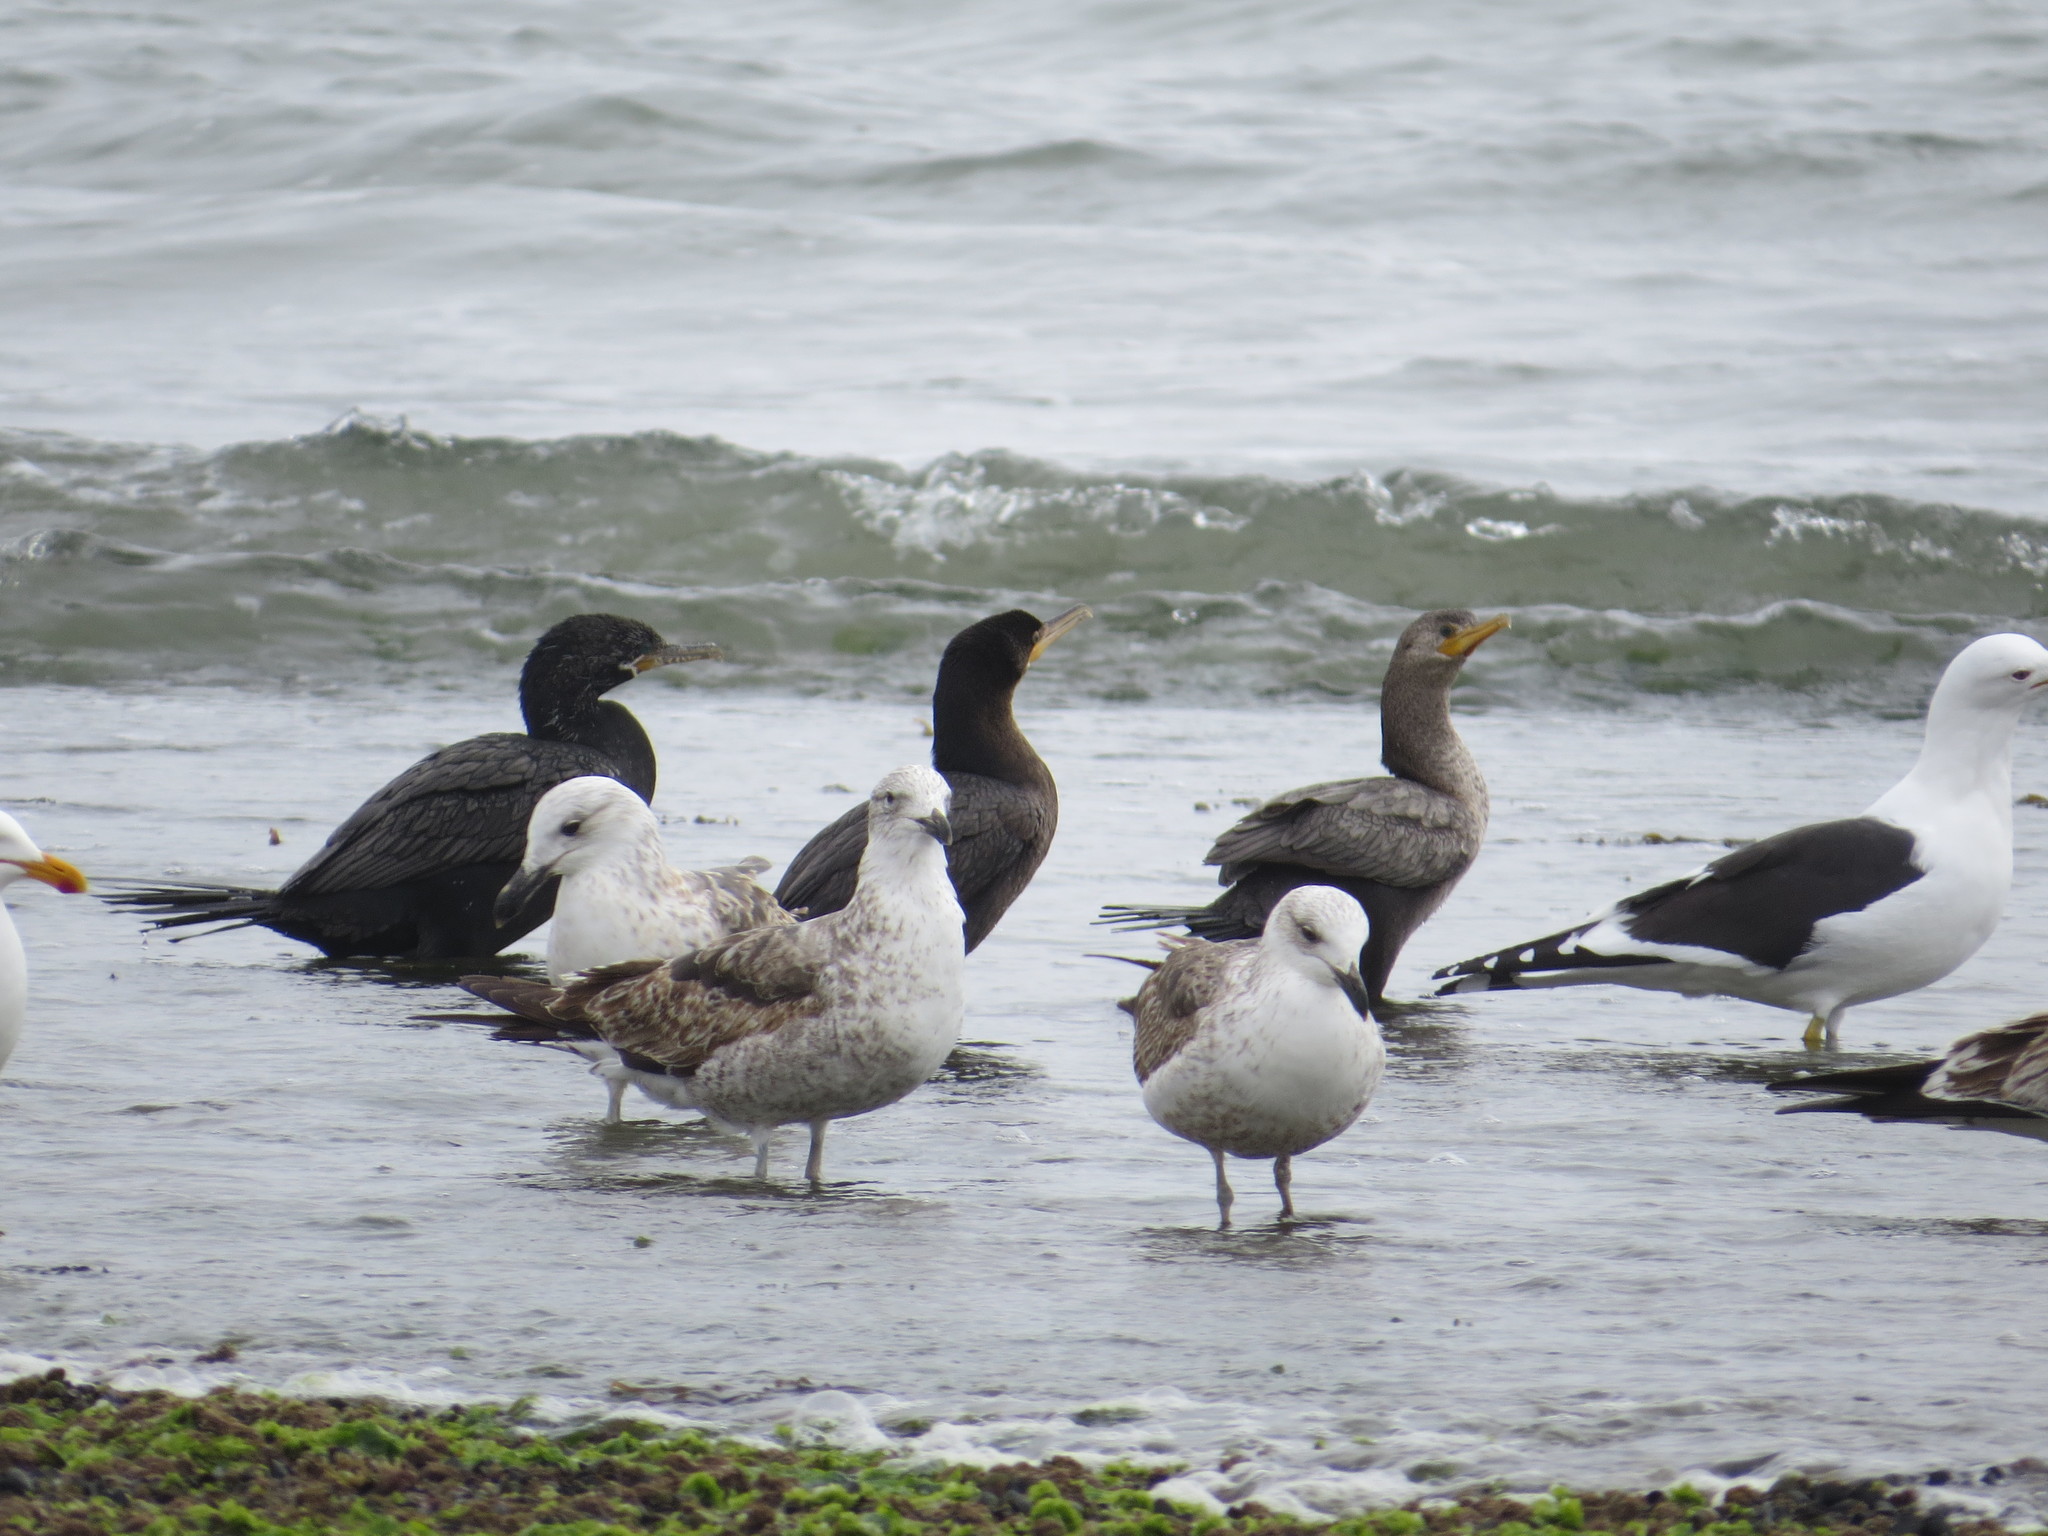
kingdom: Animalia
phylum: Chordata
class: Aves
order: Suliformes
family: Phalacrocoracidae
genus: Phalacrocorax
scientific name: Phalacrocorax brasilianus
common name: Neotropic cormorant
